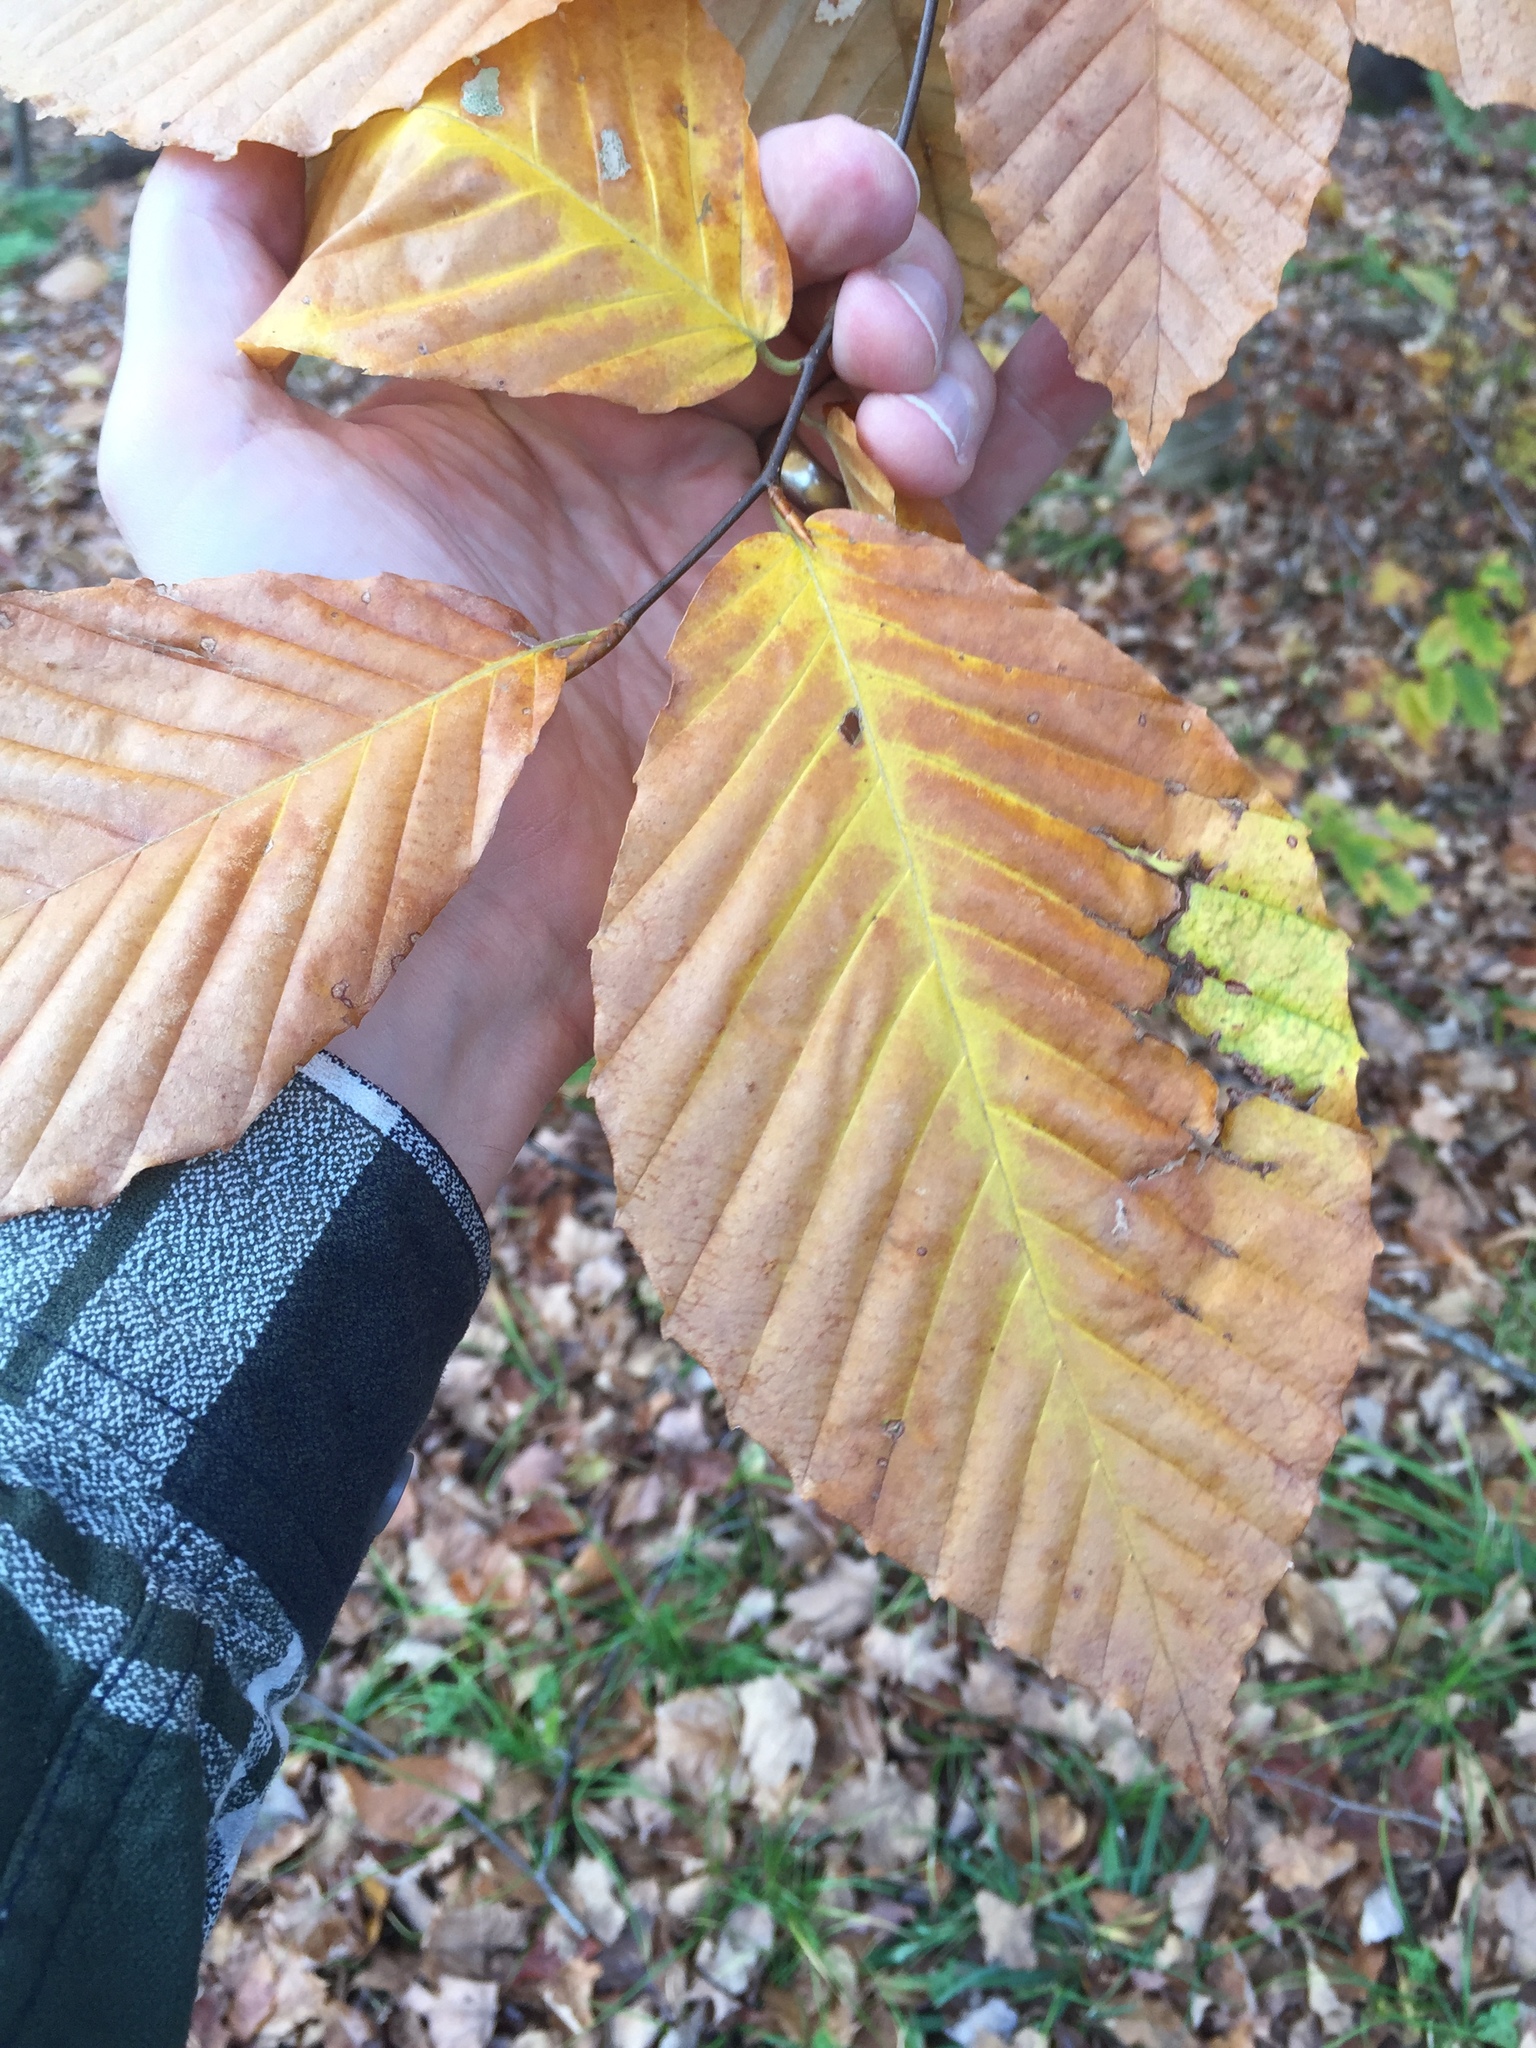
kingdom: Plantae
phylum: Tracheophyta
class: Magnoliopsida
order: Fagales
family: Fagaceae
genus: Fagus
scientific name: Fagus grandifolia
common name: American beech
